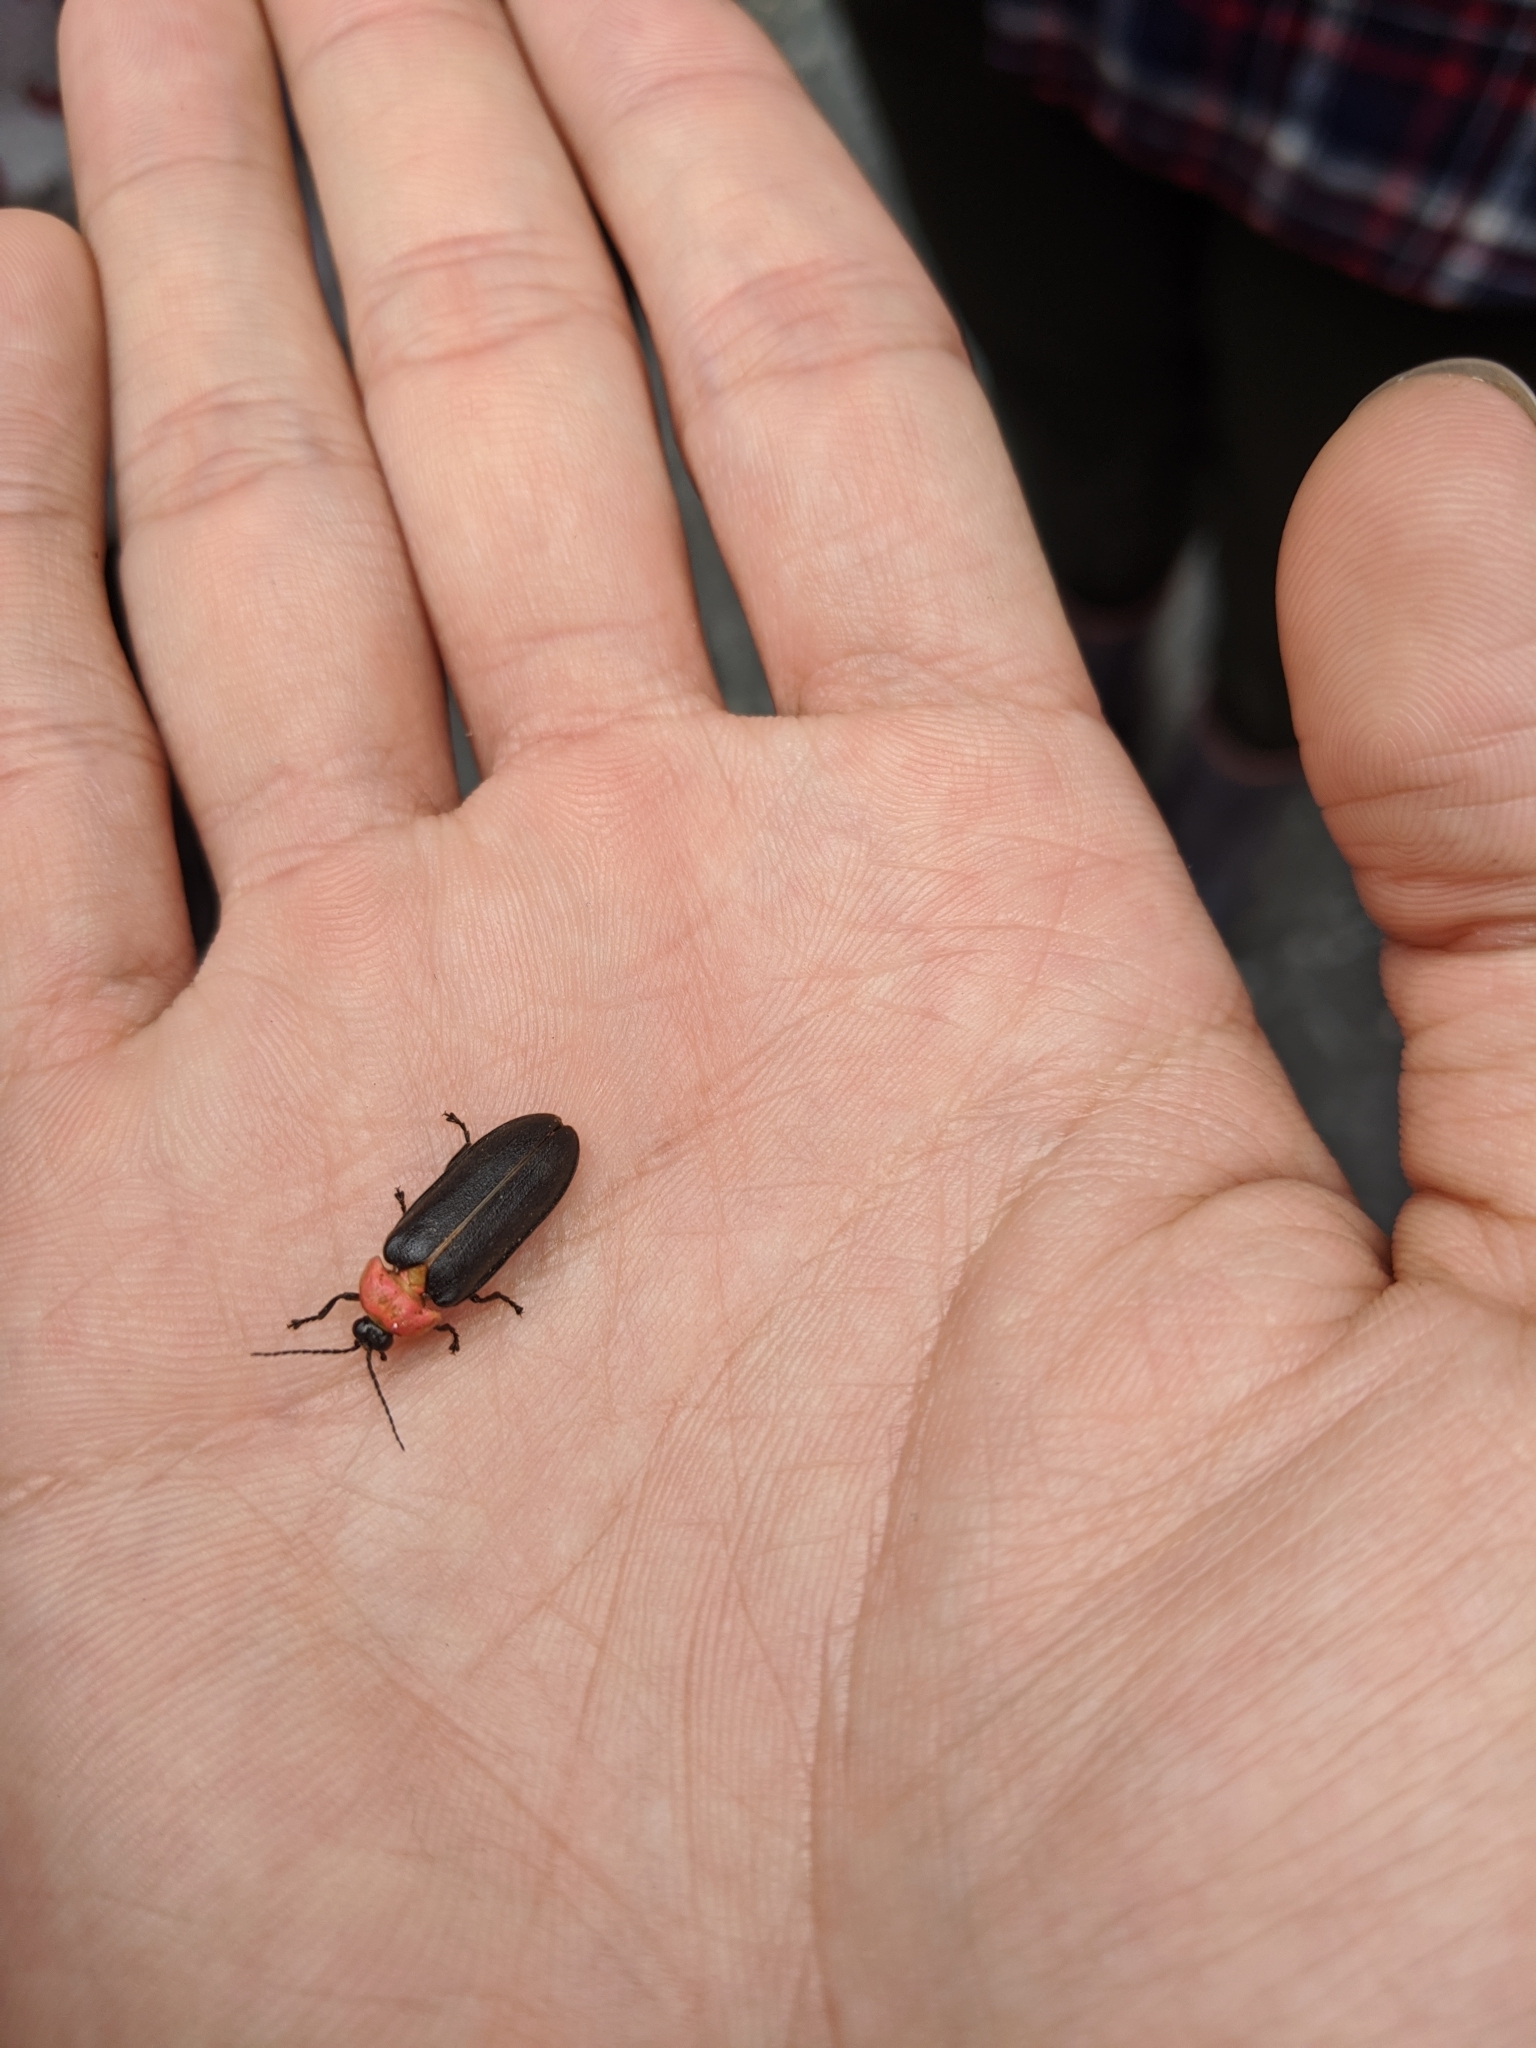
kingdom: Animalia
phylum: Arthropoda
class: Insecta
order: Coleoptera
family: Lampyridae
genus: Luciola
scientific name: Luciola kagiana
